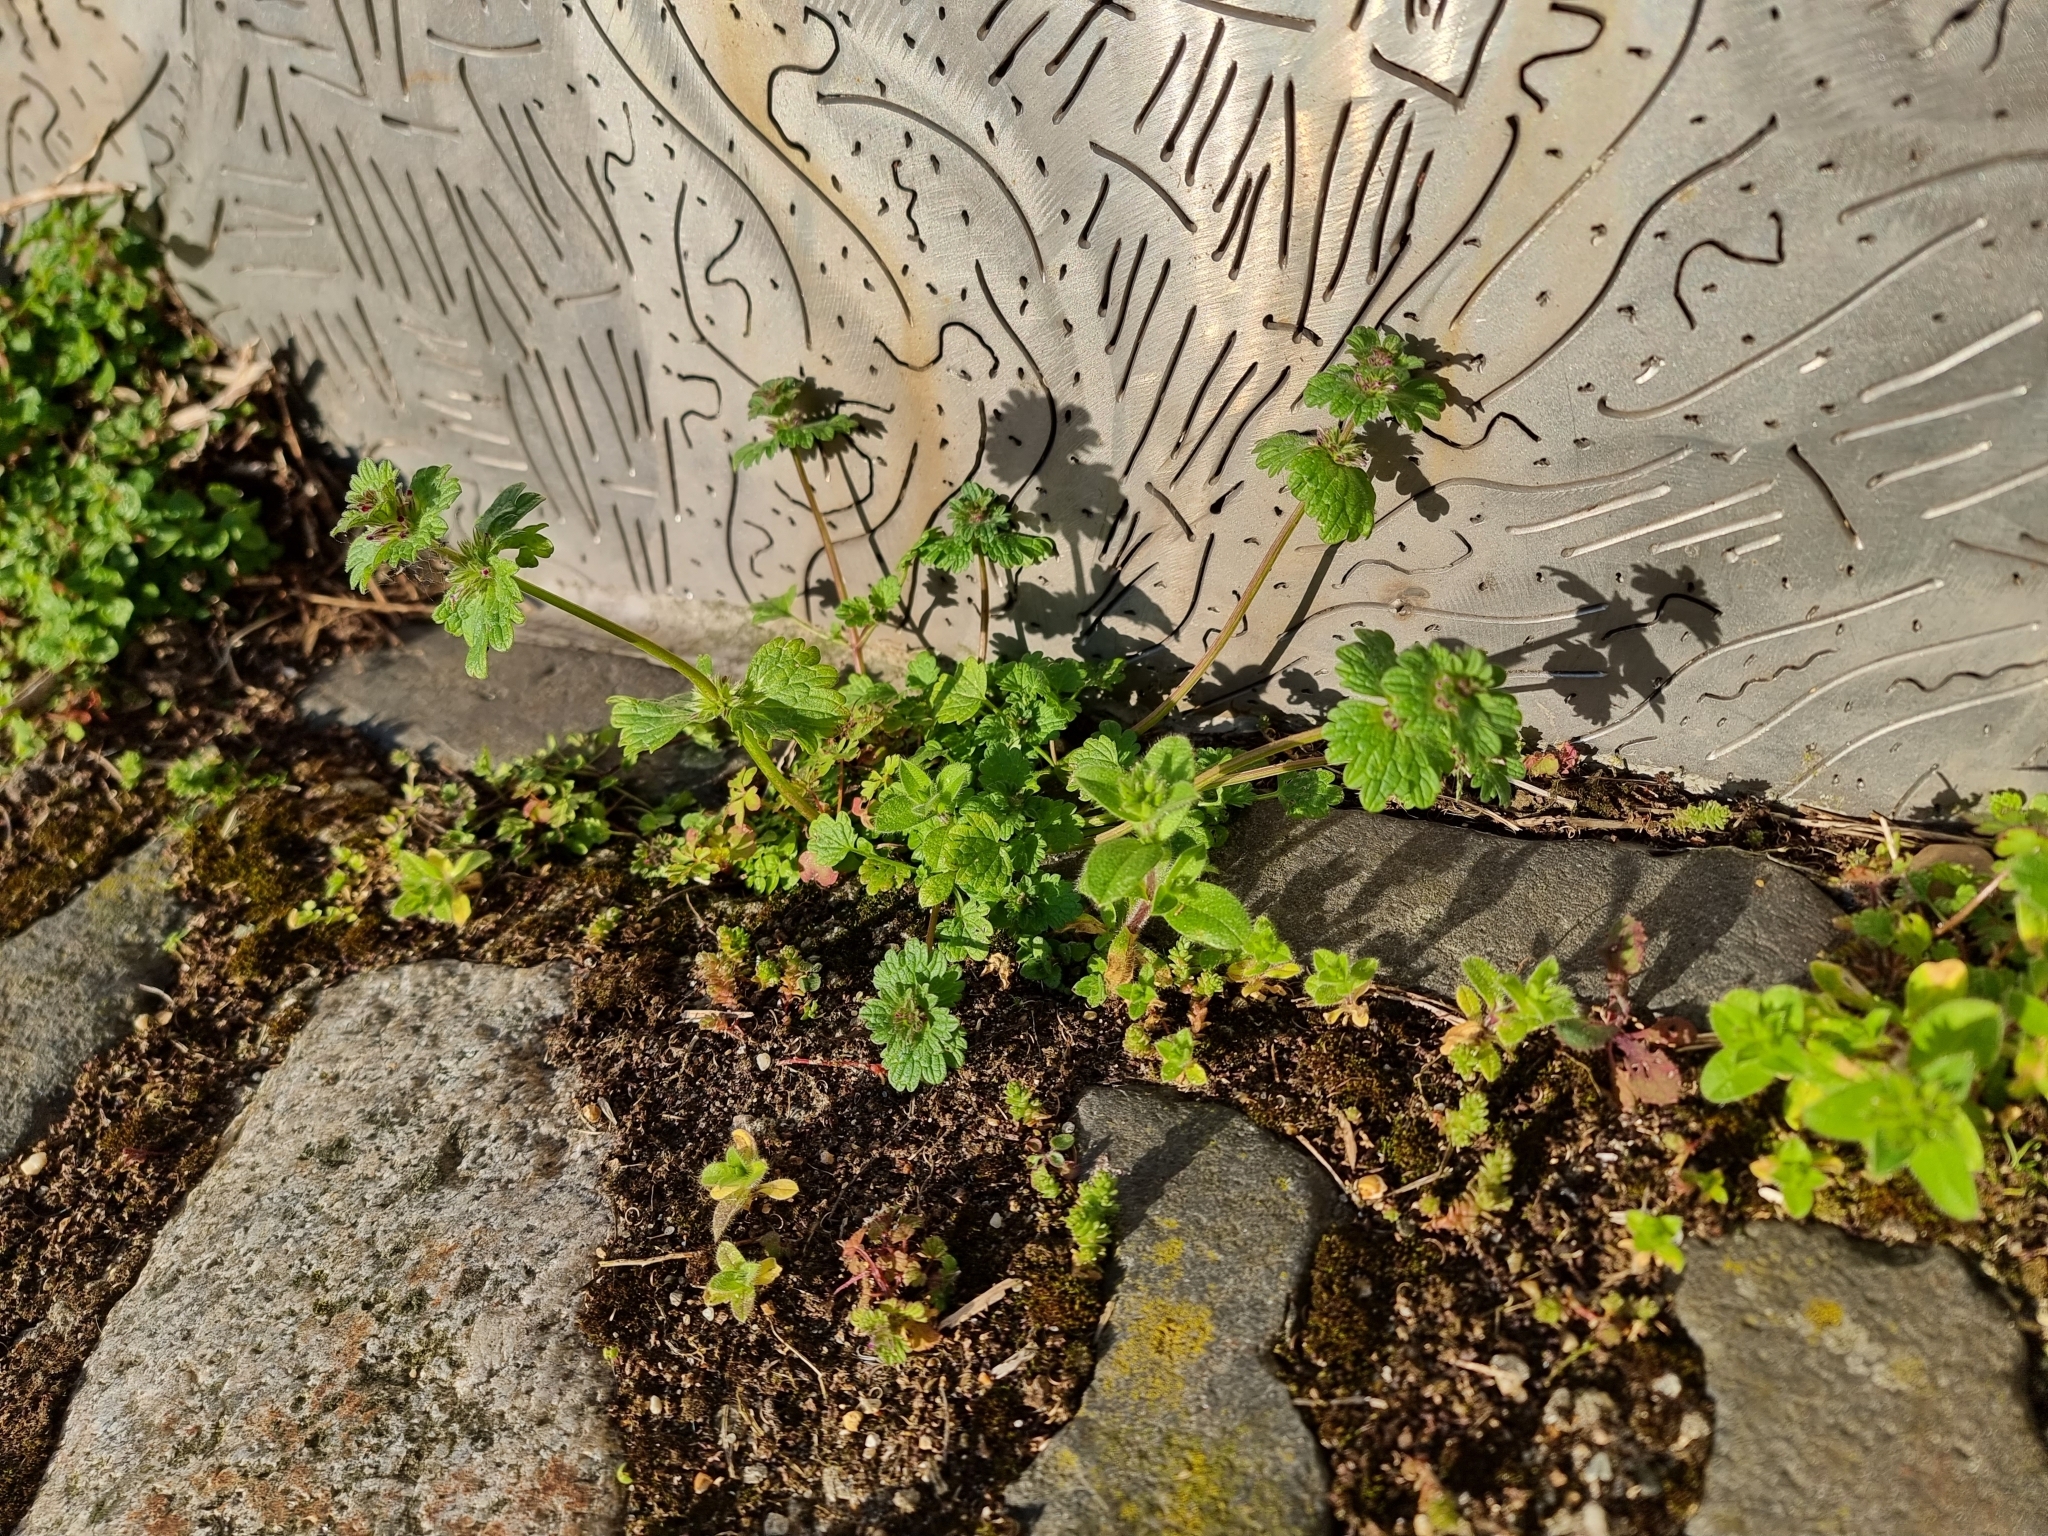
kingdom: Plantae
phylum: Tracheophyta
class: Magnoliopsida
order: Lamiales
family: Lamiaceae
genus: Lamium
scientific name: Lamium amplexicaule
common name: Henbit dead-nettle
